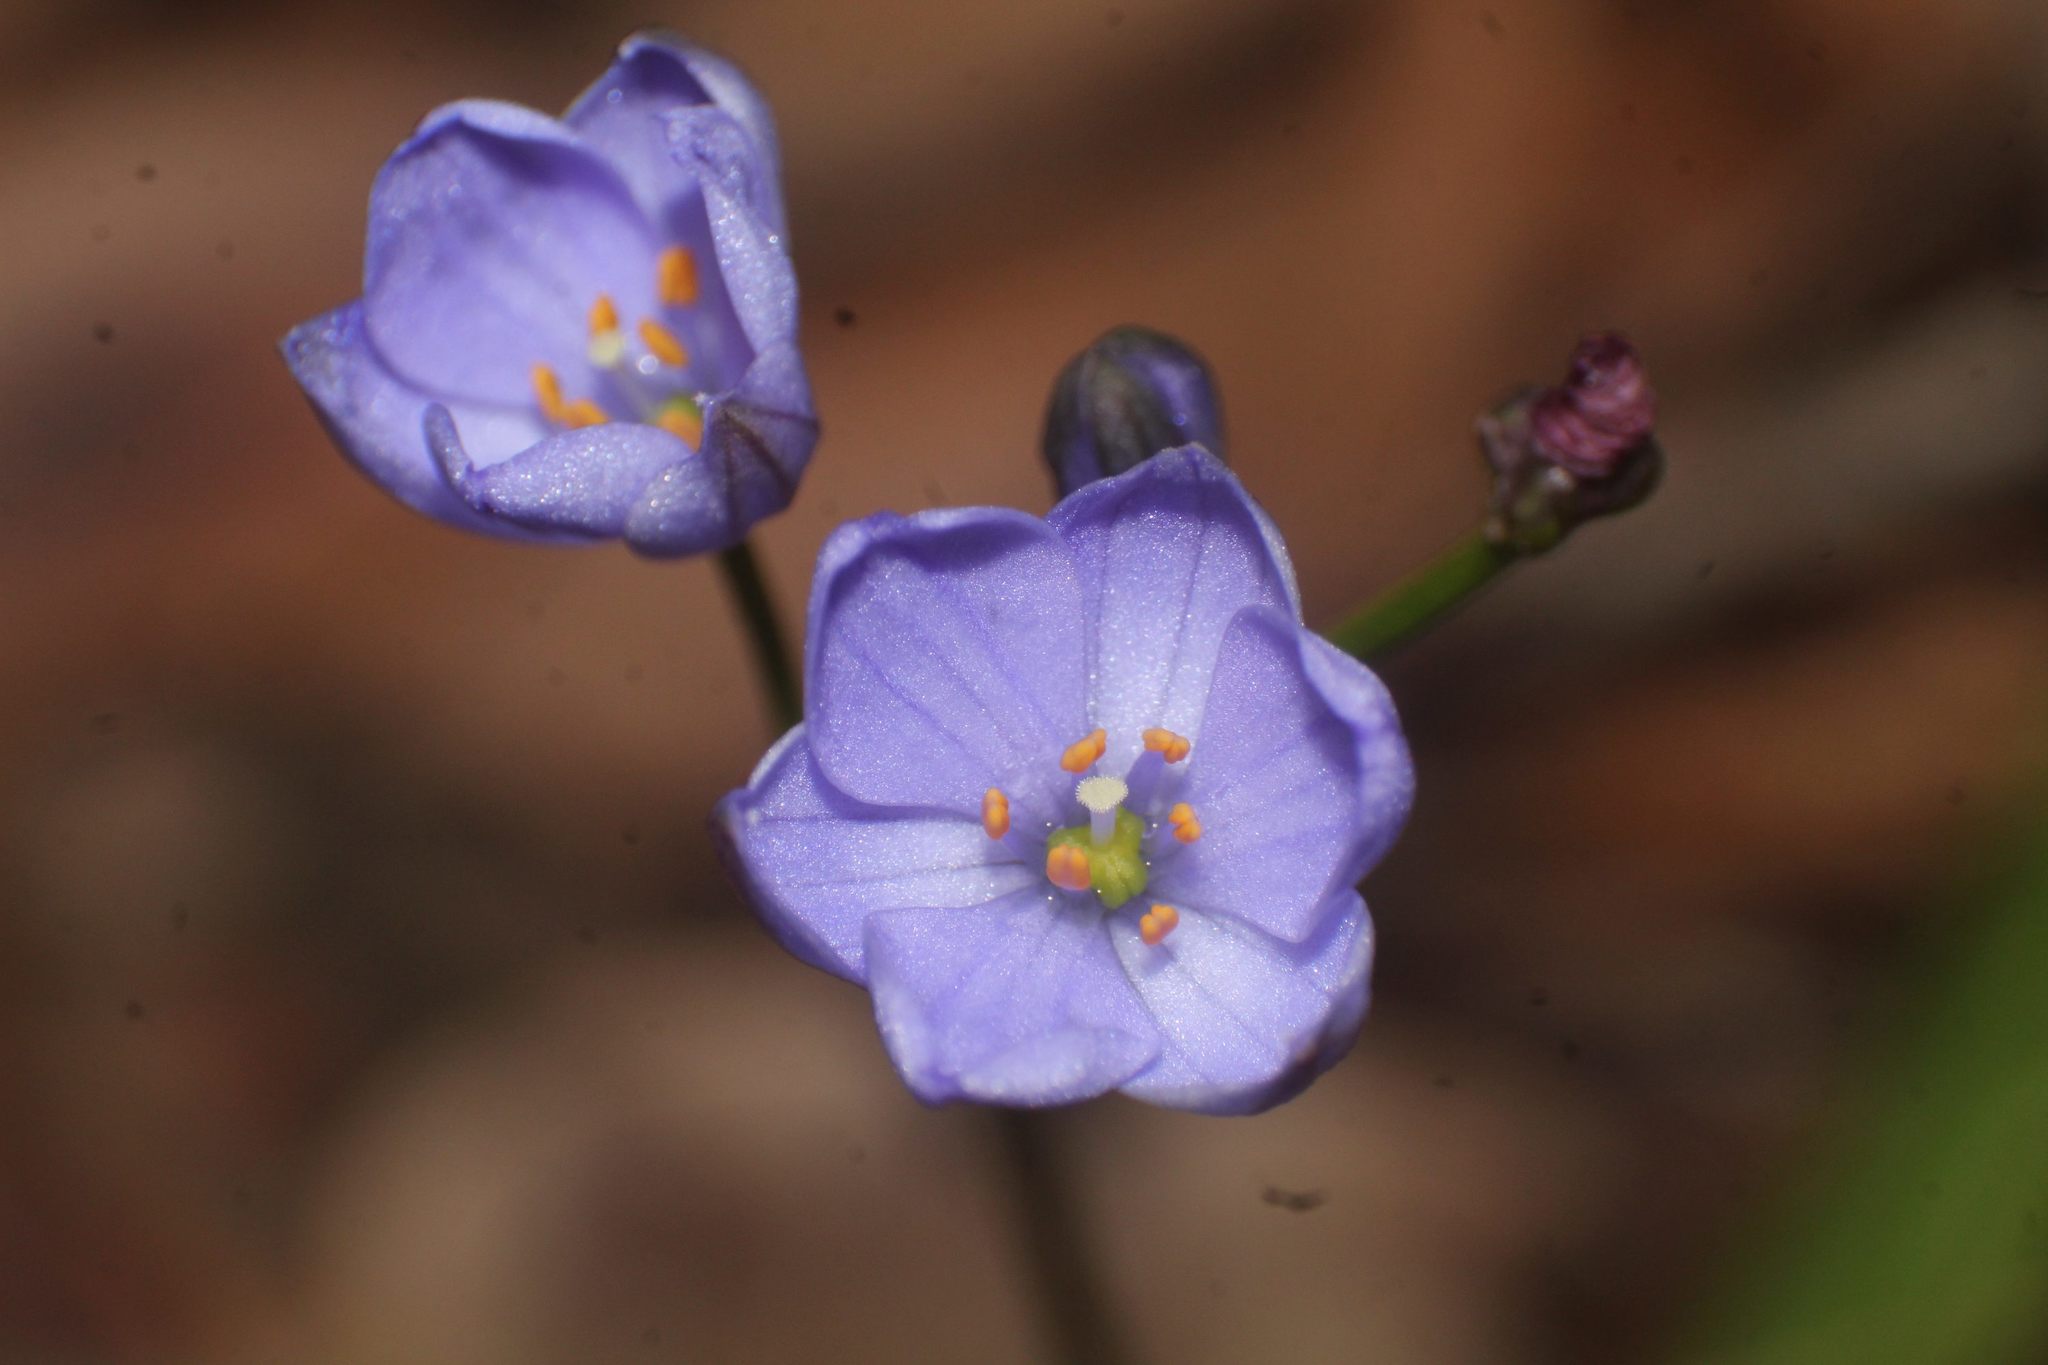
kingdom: Plantae
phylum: Tracheophyta
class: Liliopsida
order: Asparagales
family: Asphodelaceae
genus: Chamaescilla
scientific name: Chamaescilla corymbosa
